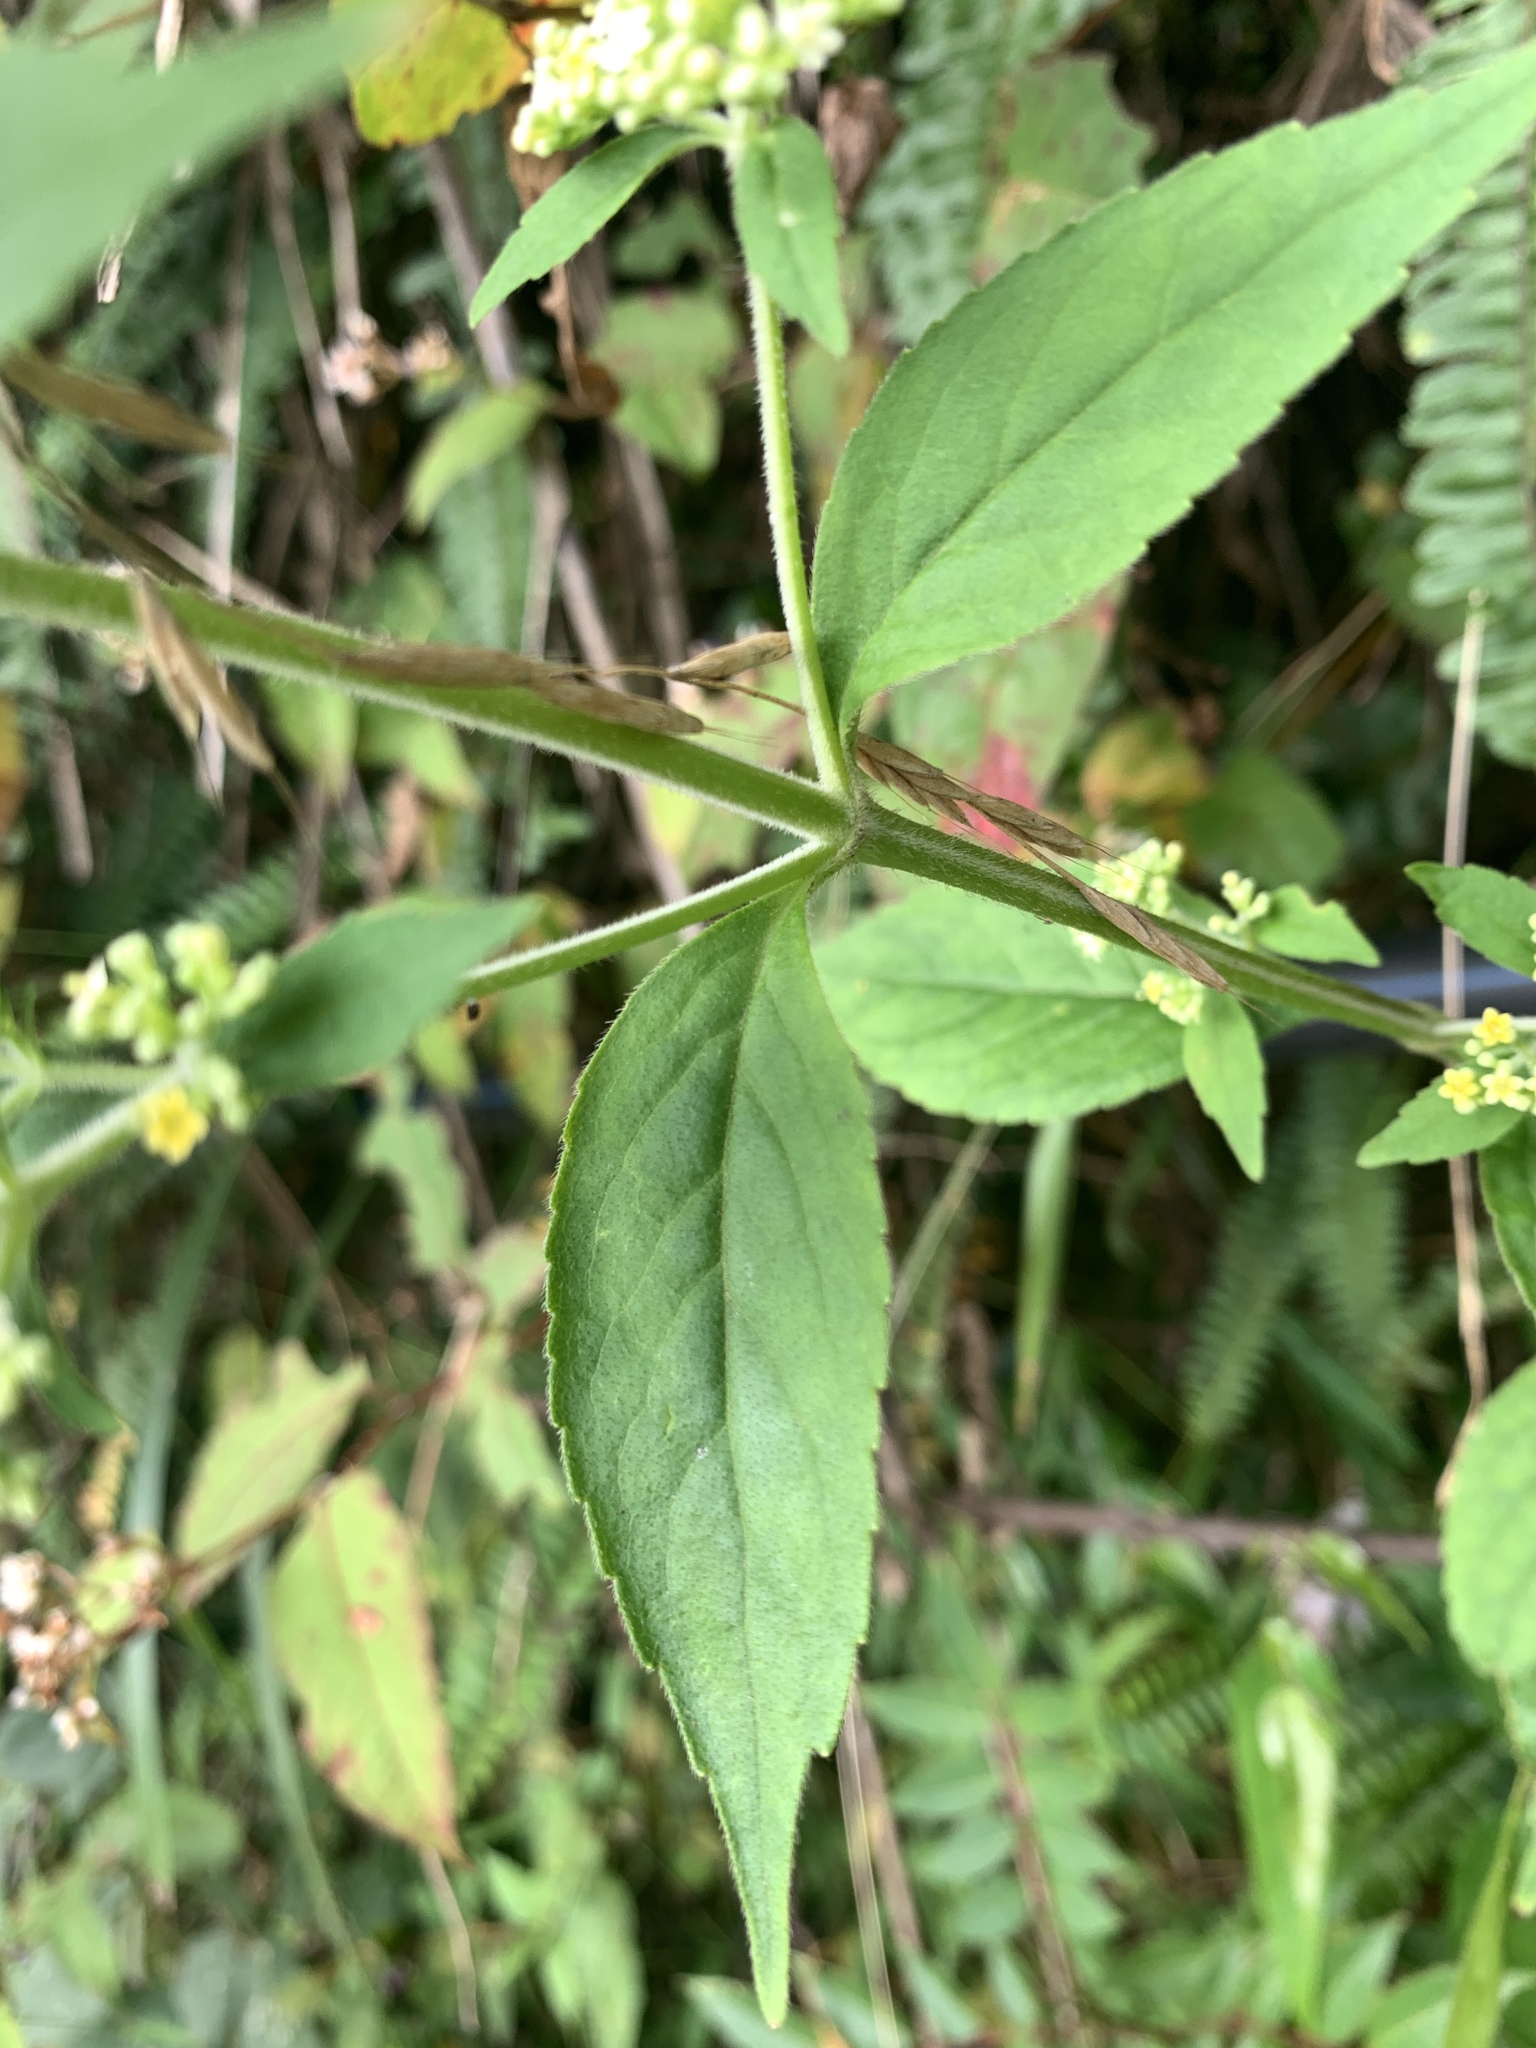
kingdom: Plantae
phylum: Tracheophyta
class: Magnoliopsida
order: Dipsacales
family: Caprifoliaceae
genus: Patrinia
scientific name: Patrinia monandra
